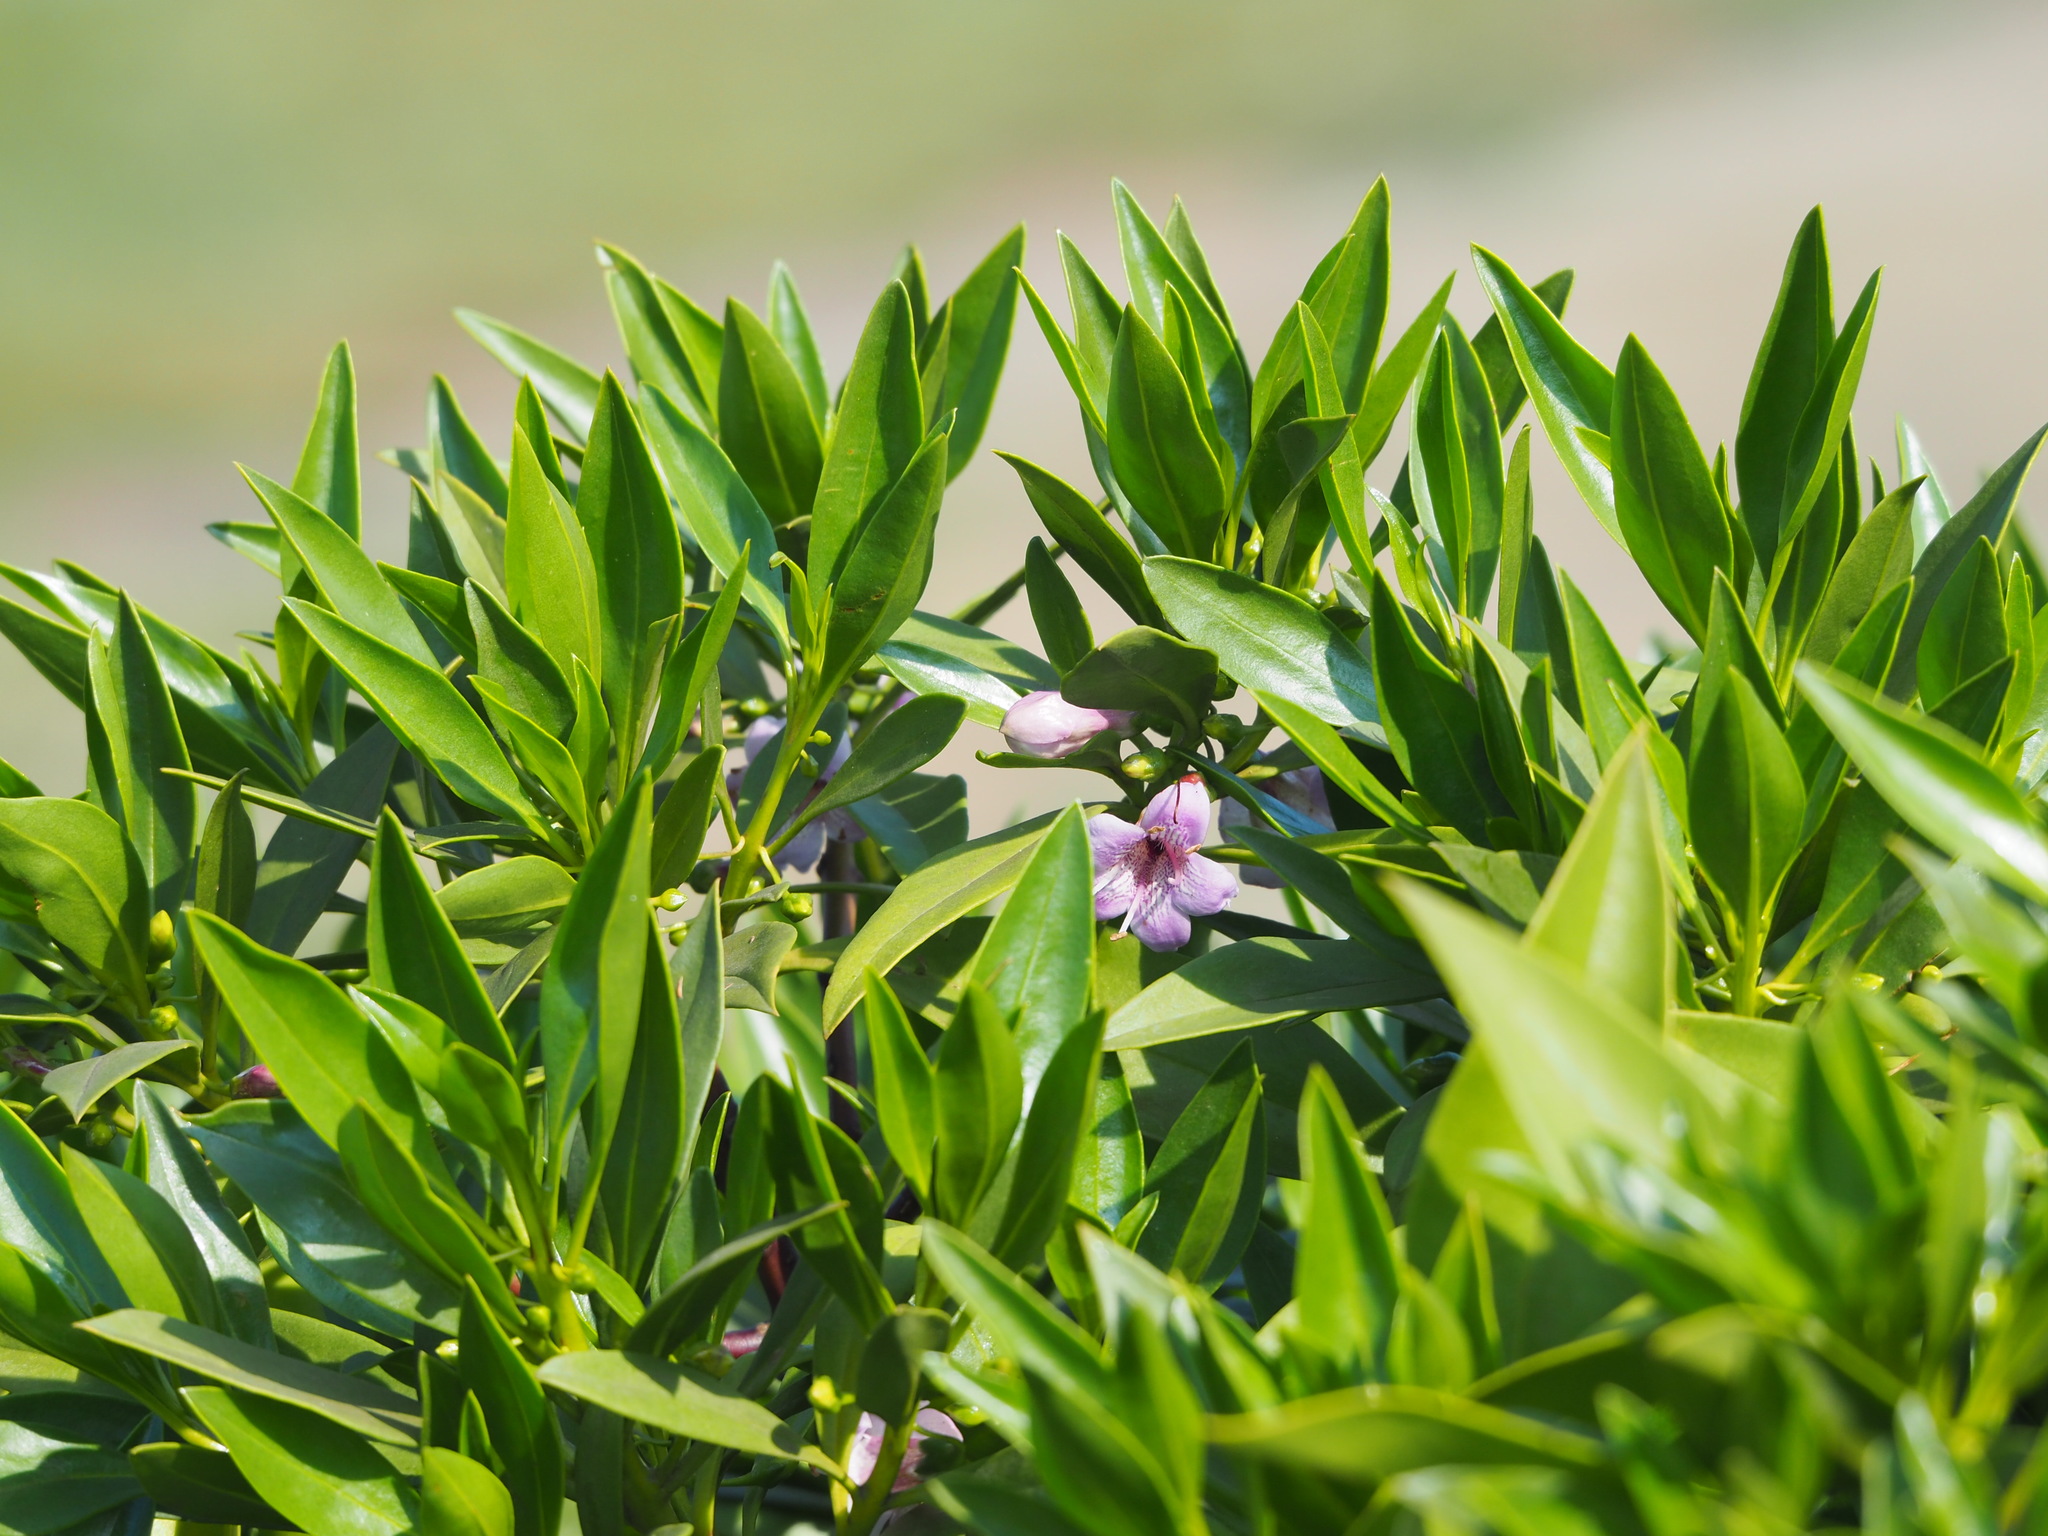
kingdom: Plantae
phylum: Tracheophyta
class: Magnoliopsida
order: Lamiales
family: Scrophulariaceae
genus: Myoporum
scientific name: Myoporum bontioides
